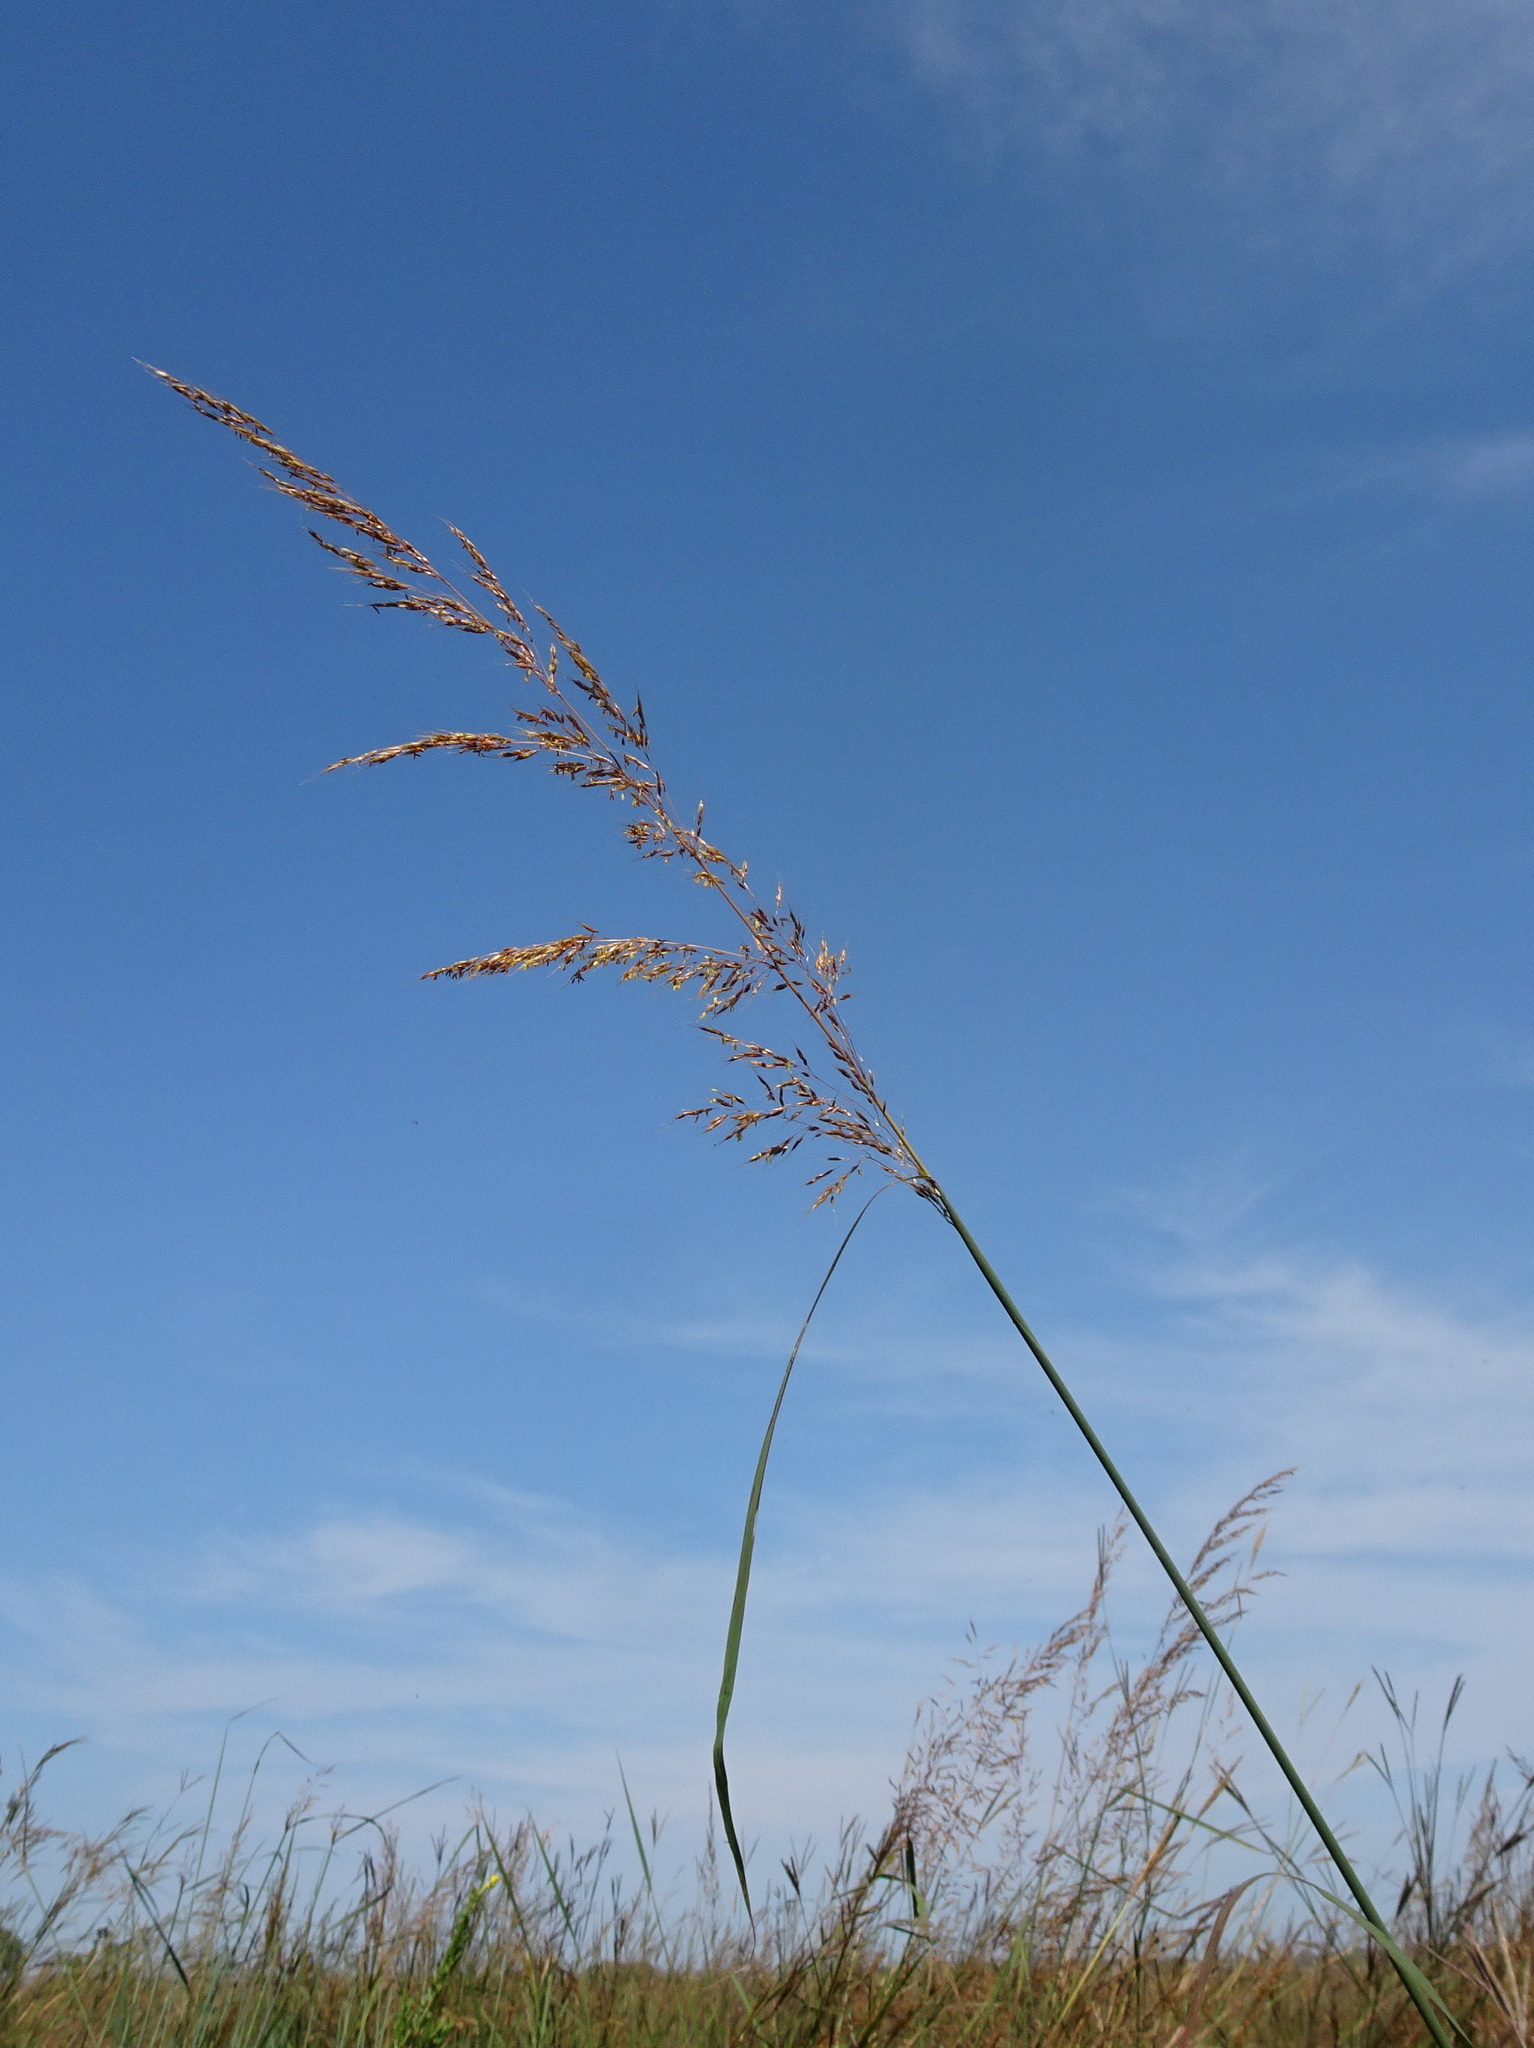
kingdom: Plantae
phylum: Tracheophyta
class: Liliopsida
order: Poales
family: Poaceae
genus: Sorghastrum
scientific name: Sorghastrum nutans
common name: Indian grass
